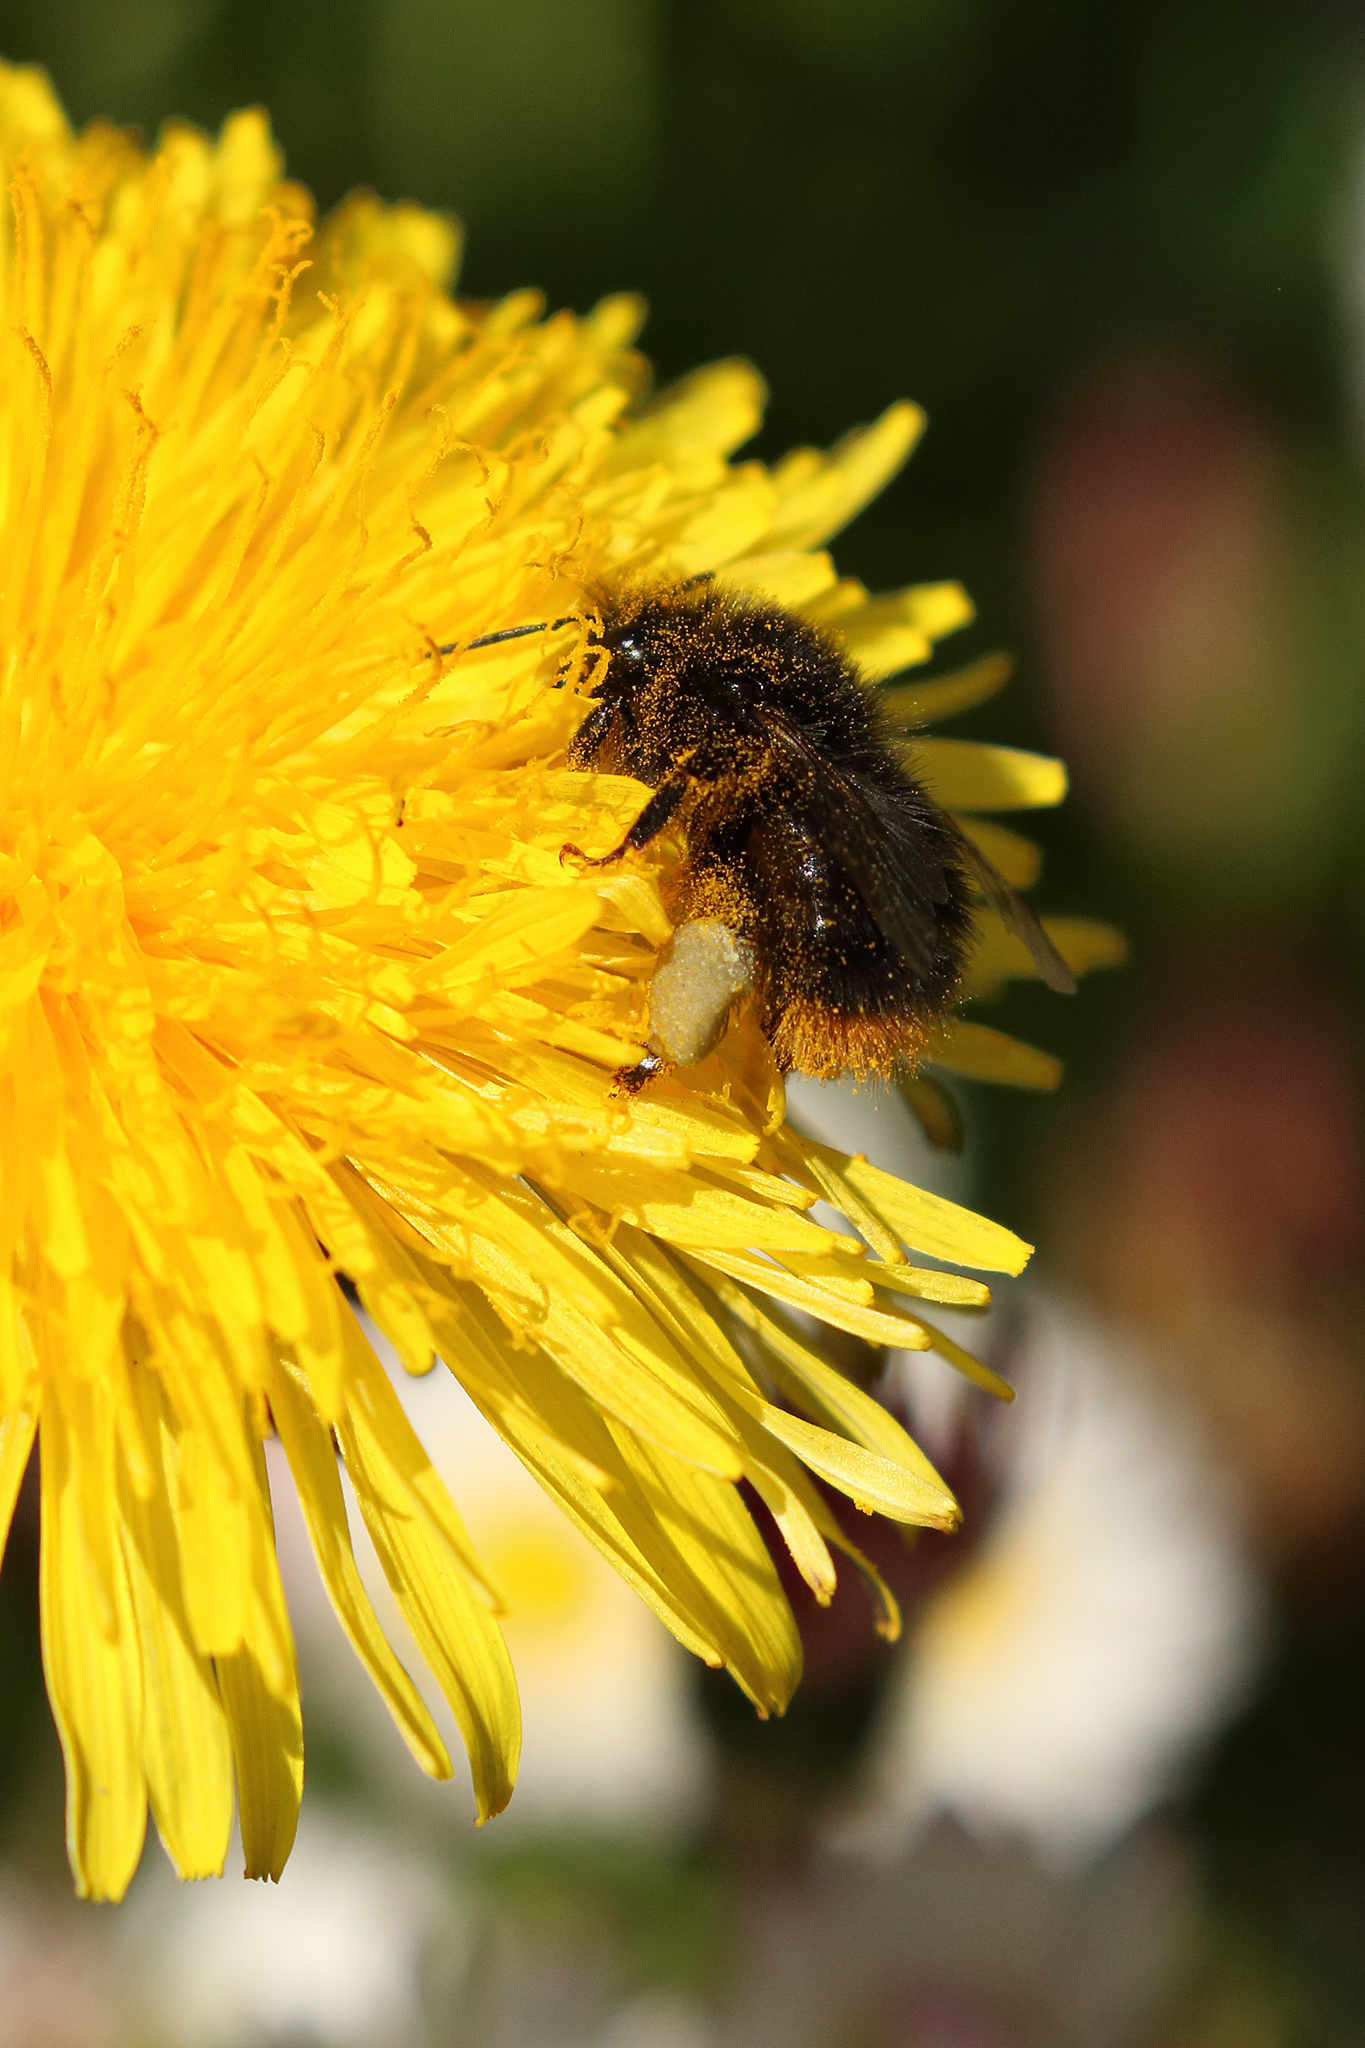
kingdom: Animalia
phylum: Arthropoda
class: Insecta
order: Hymenoptera
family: Apidae
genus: Bombus
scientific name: Bombus pratorum
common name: Early humble-bee
